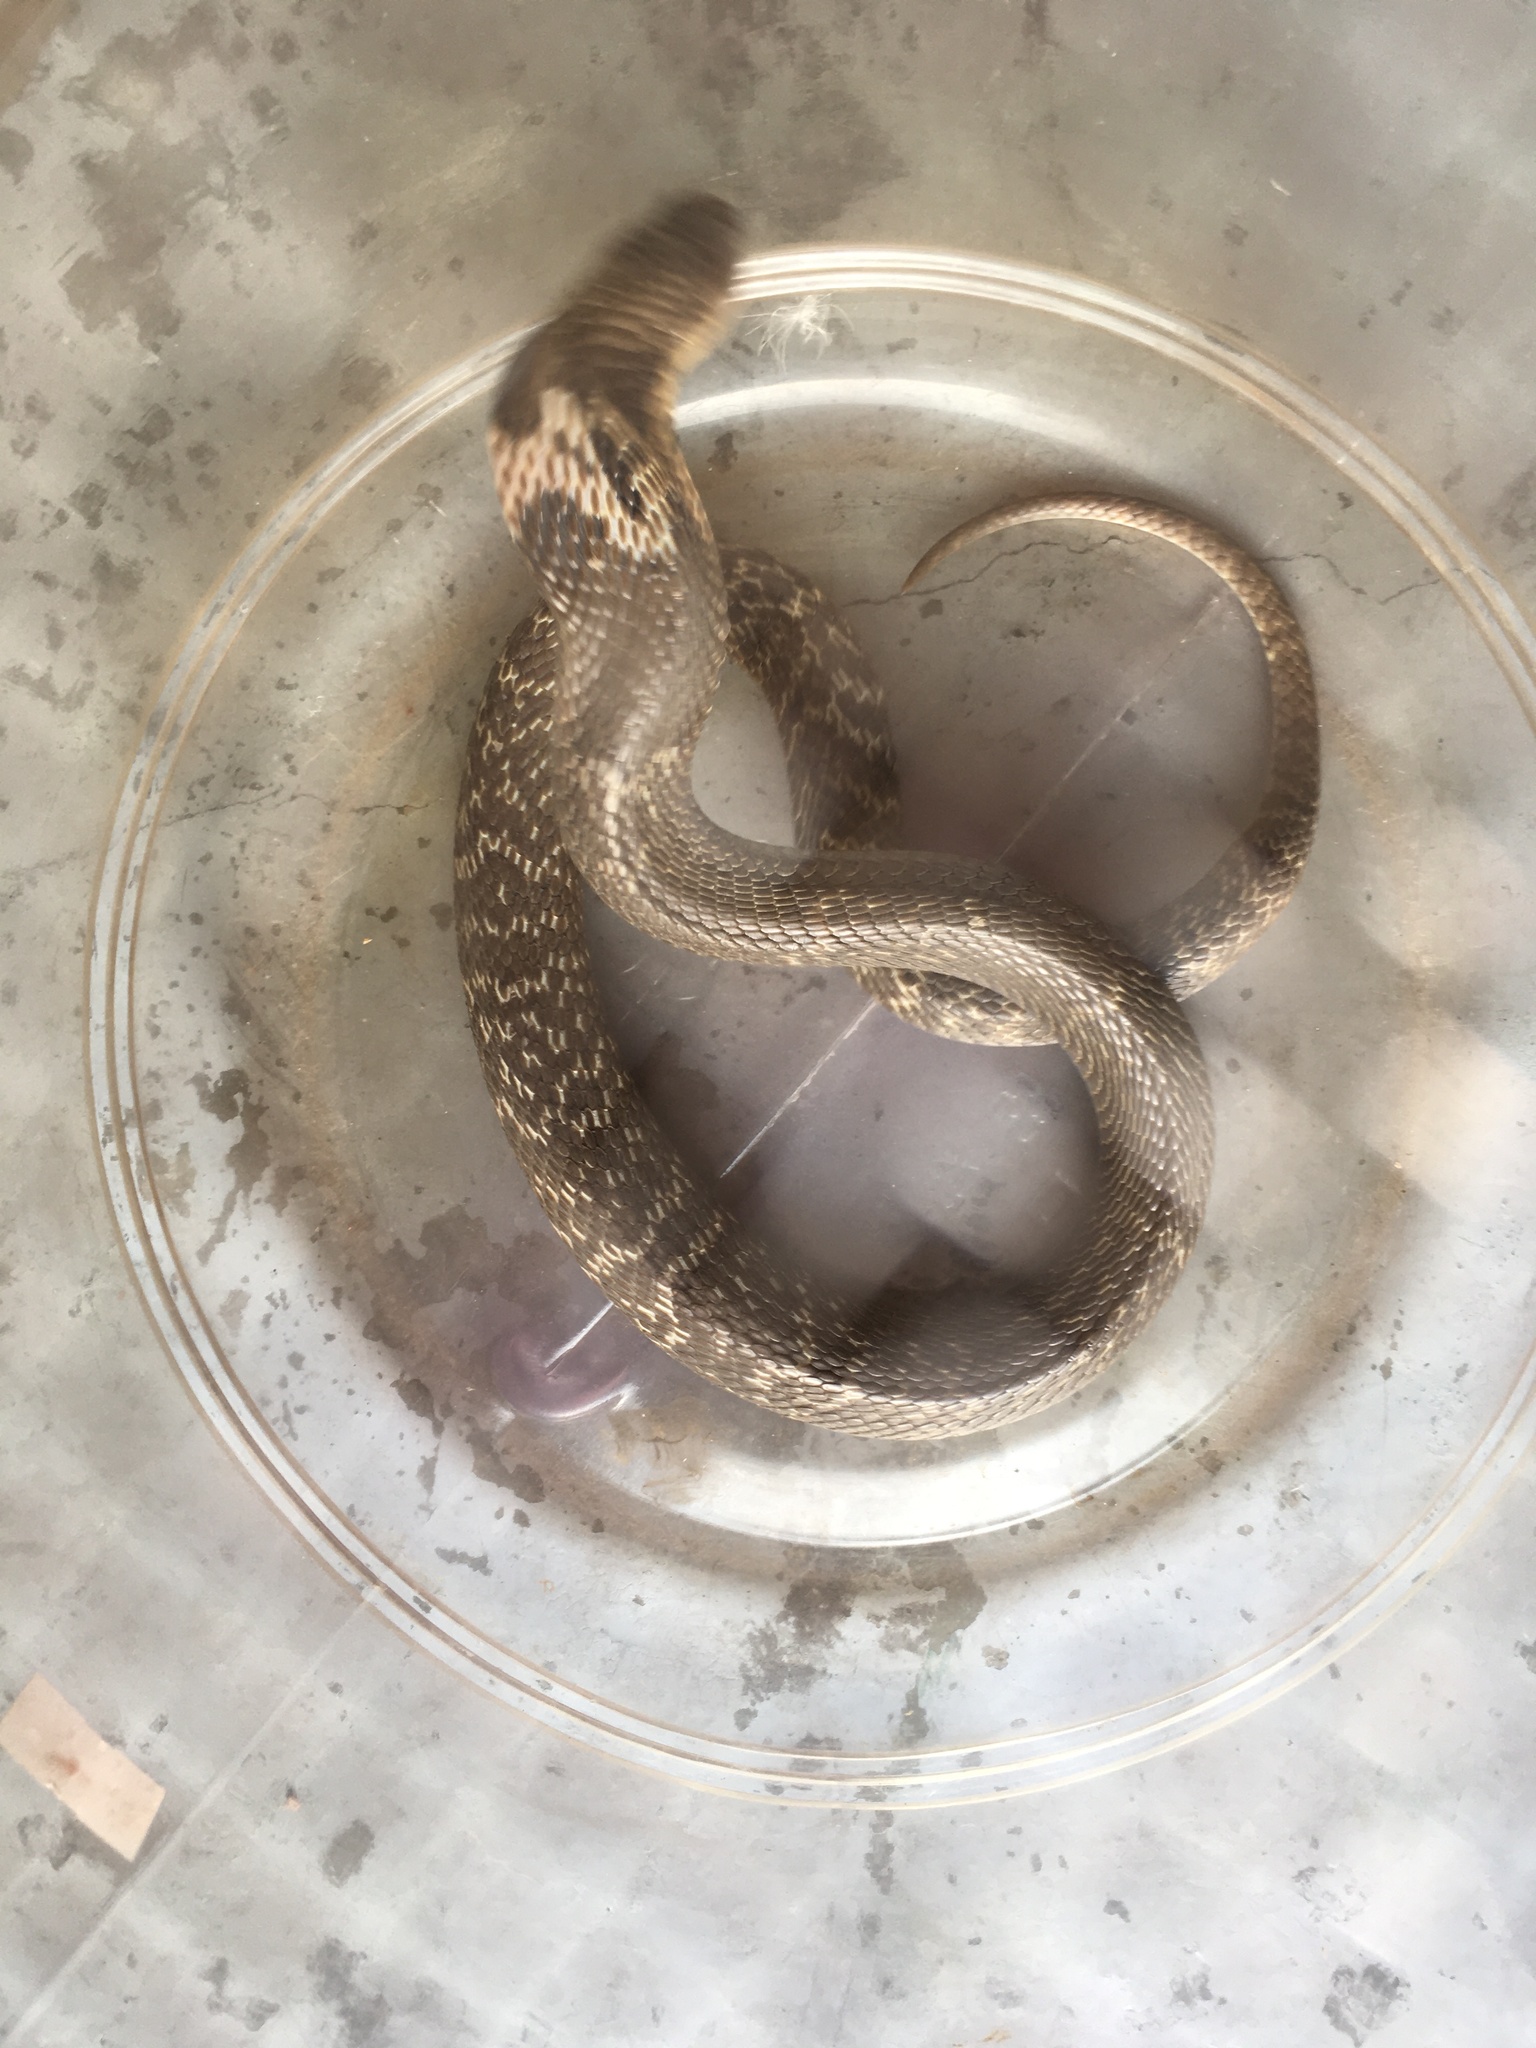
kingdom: Animalia
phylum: Chordata
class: Squamata
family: Elapidae
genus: Naja
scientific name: Naja atra
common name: Chinese cobra
